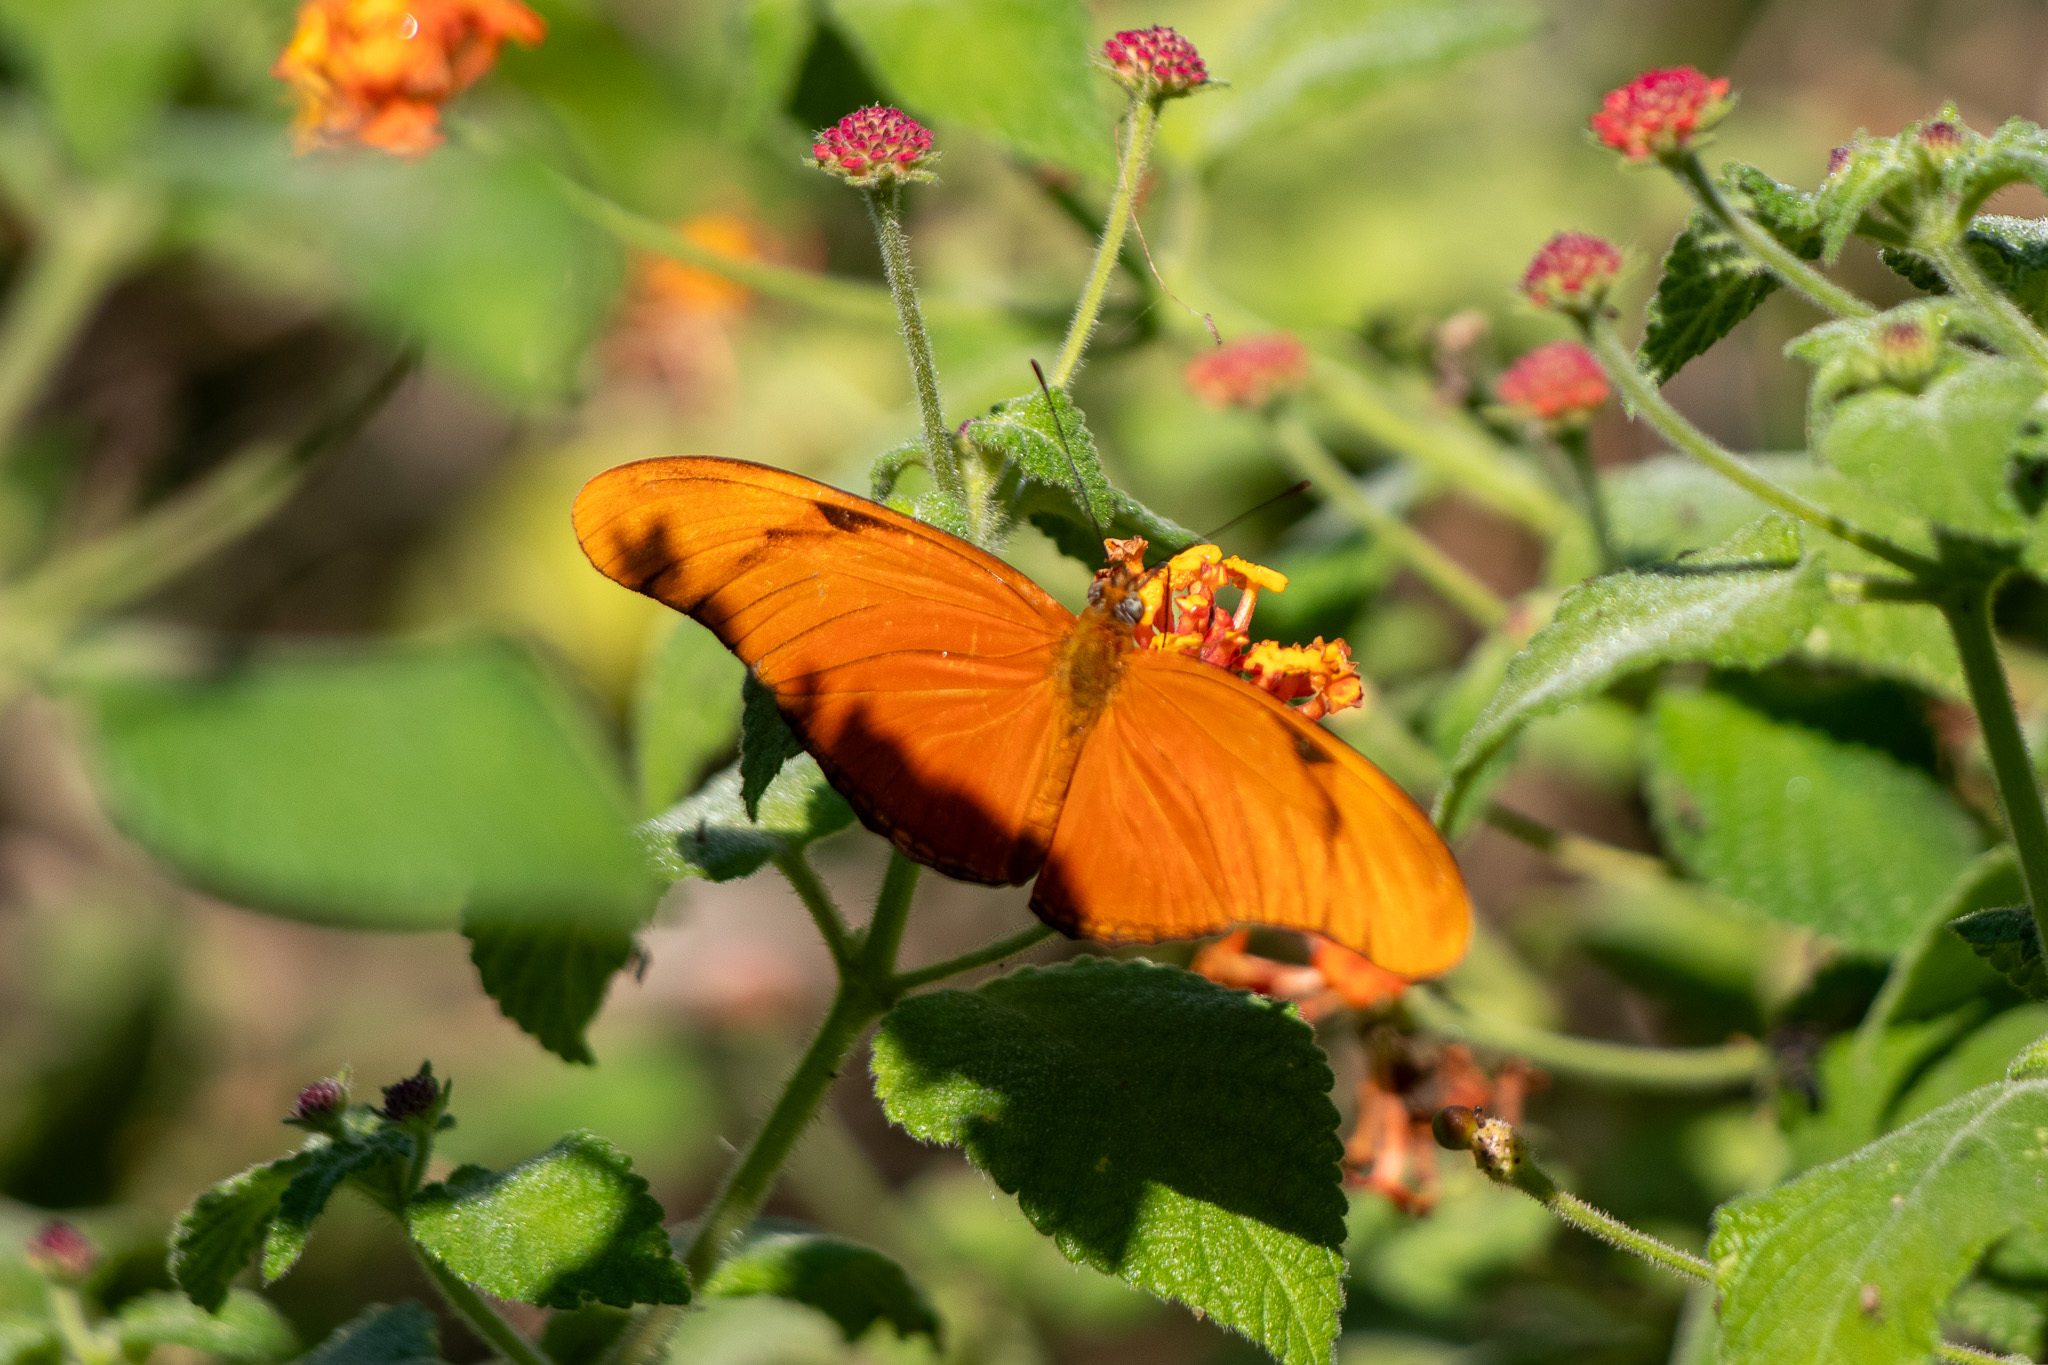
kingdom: Animalia
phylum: Arthropoda
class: Insecta
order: Lepidoptera
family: Nymphalidae
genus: Dryas
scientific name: Dryas iulia
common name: Flambeau
